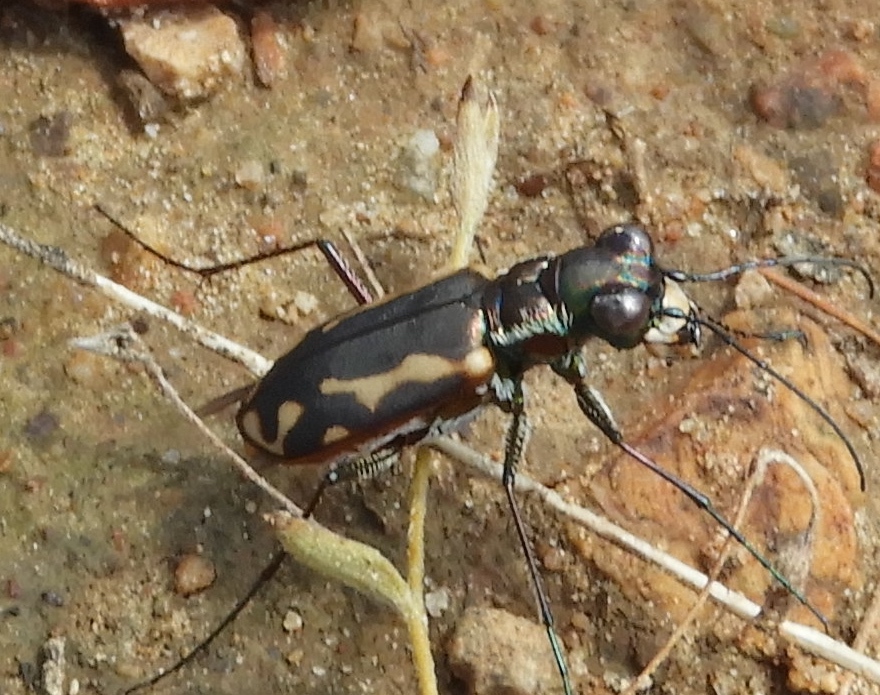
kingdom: Animalia
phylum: Arthropoda
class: Insecta
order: Coleoptera
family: Carabidae
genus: Cicindela
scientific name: Cicindela hydrophoba
